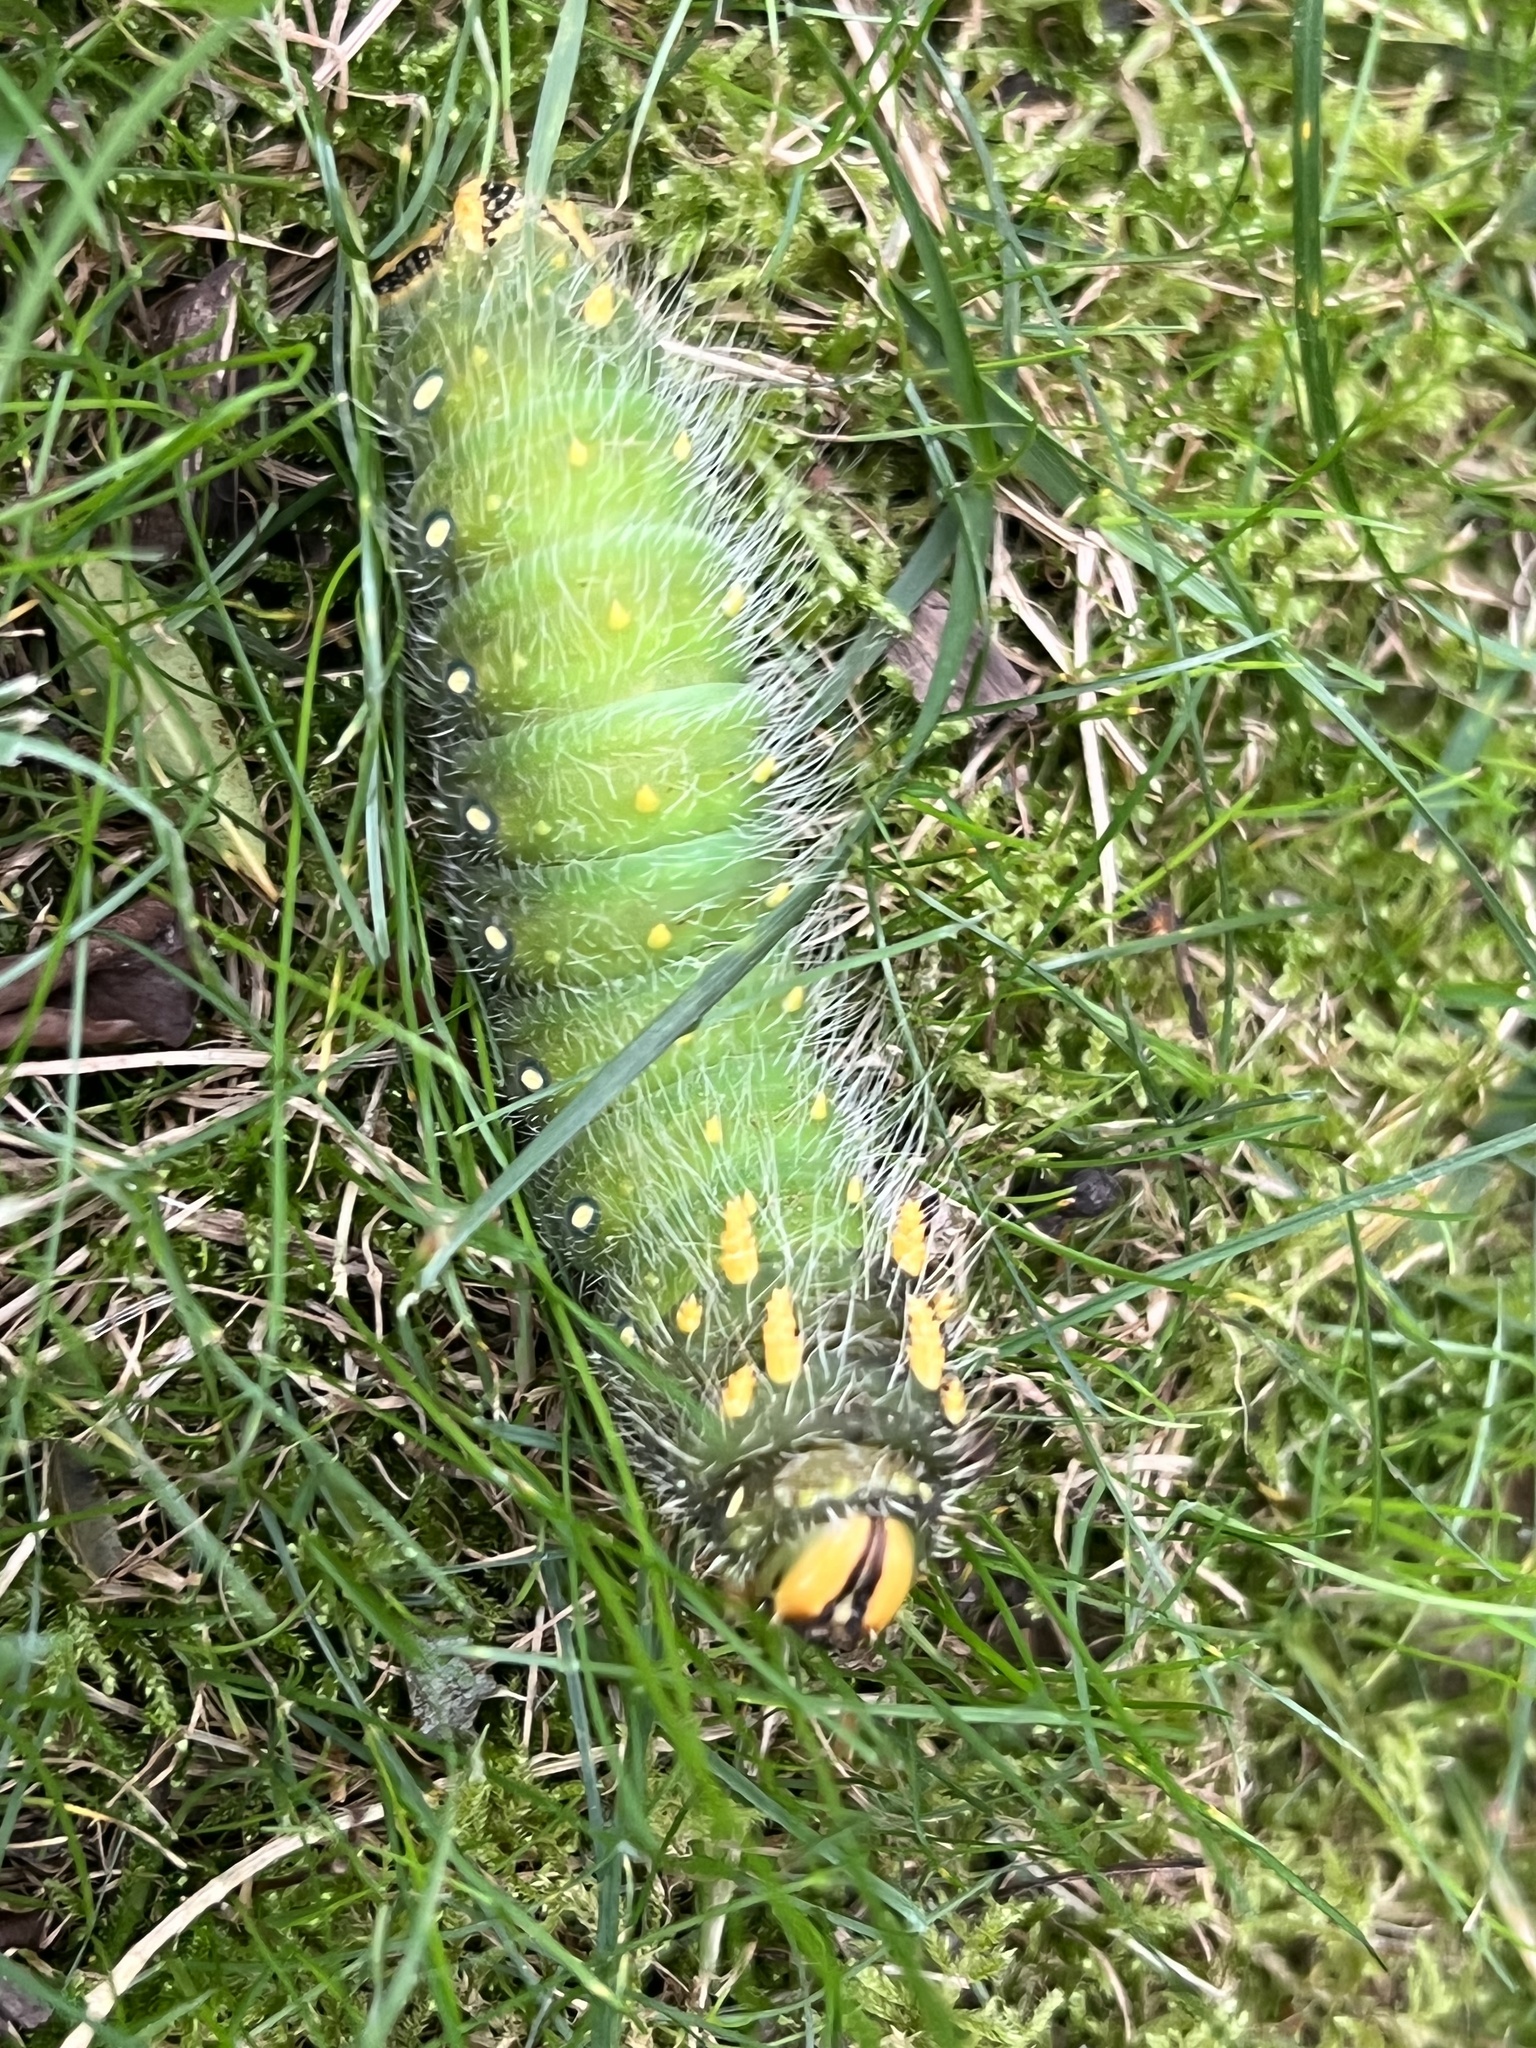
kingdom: Animalia
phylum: Arthropoda
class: Insecta
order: Lepidoptera
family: Saturniidae
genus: Eacles
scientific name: Eacles imperialis
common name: Imperial moth
